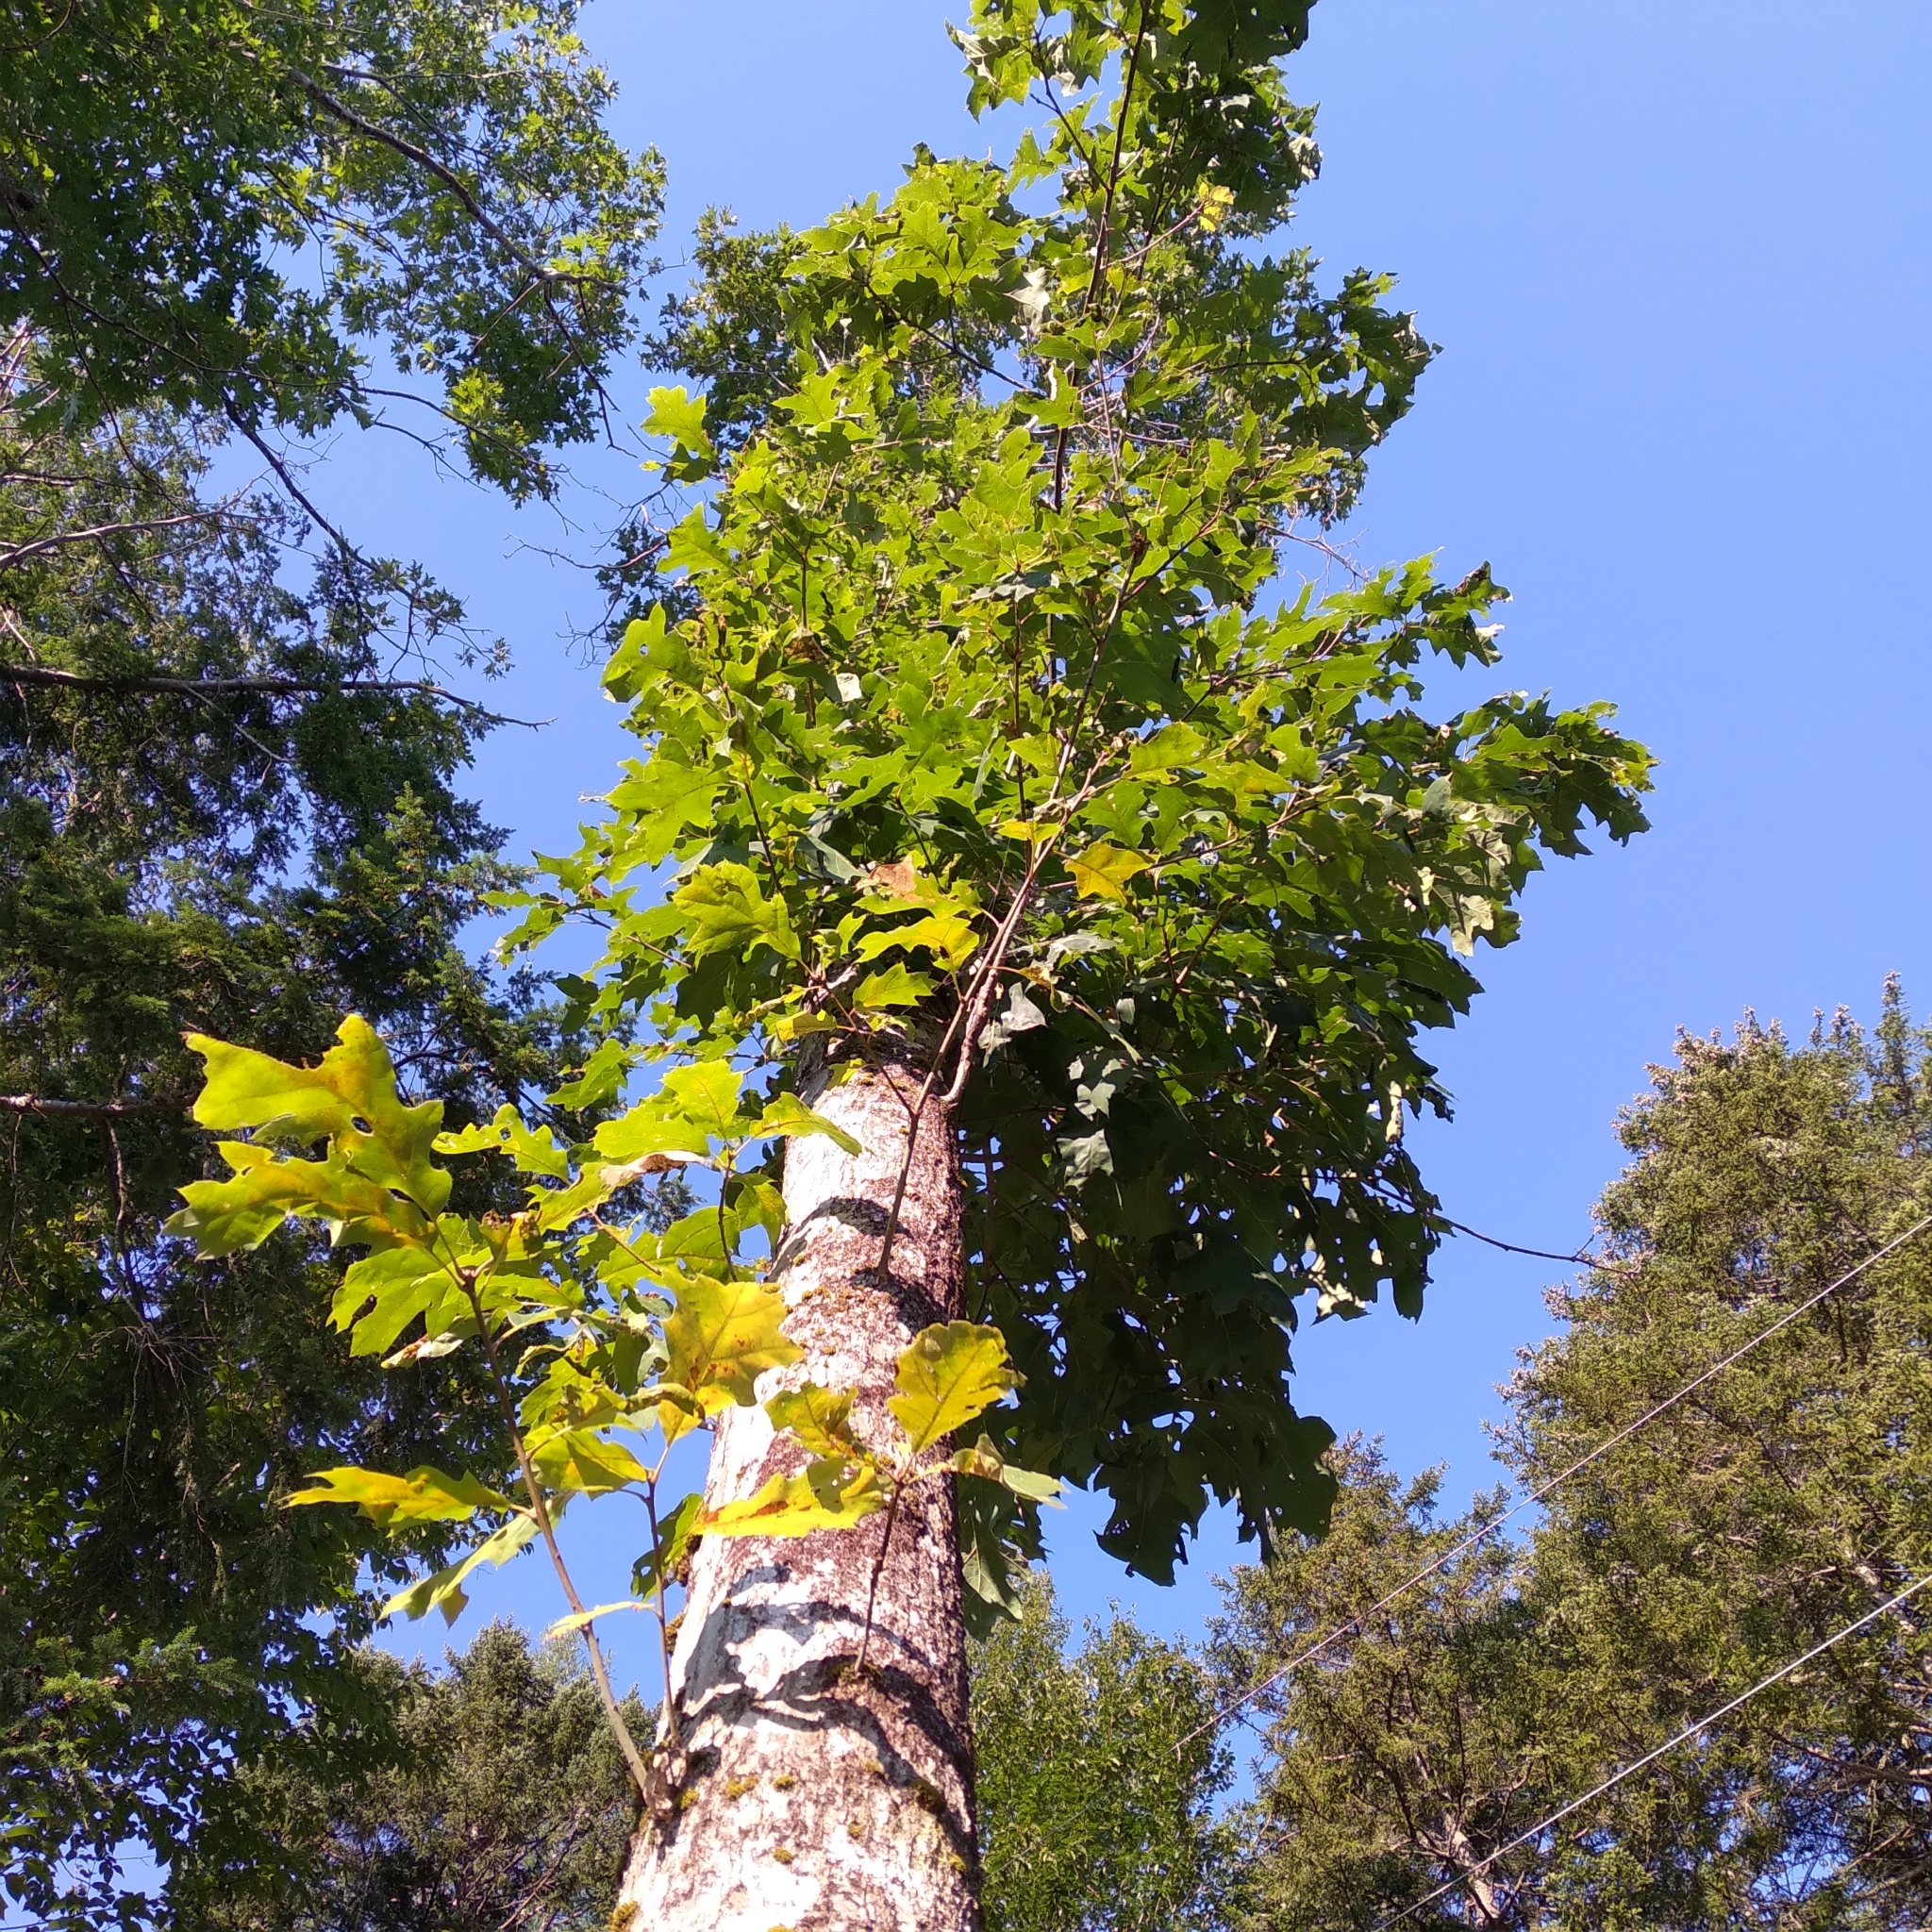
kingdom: Plantae
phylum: Tracheophyta
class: Magnoliopsida
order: Fagales
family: Fagaceae
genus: Quercus
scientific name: Quercus rubra
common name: Red oak
